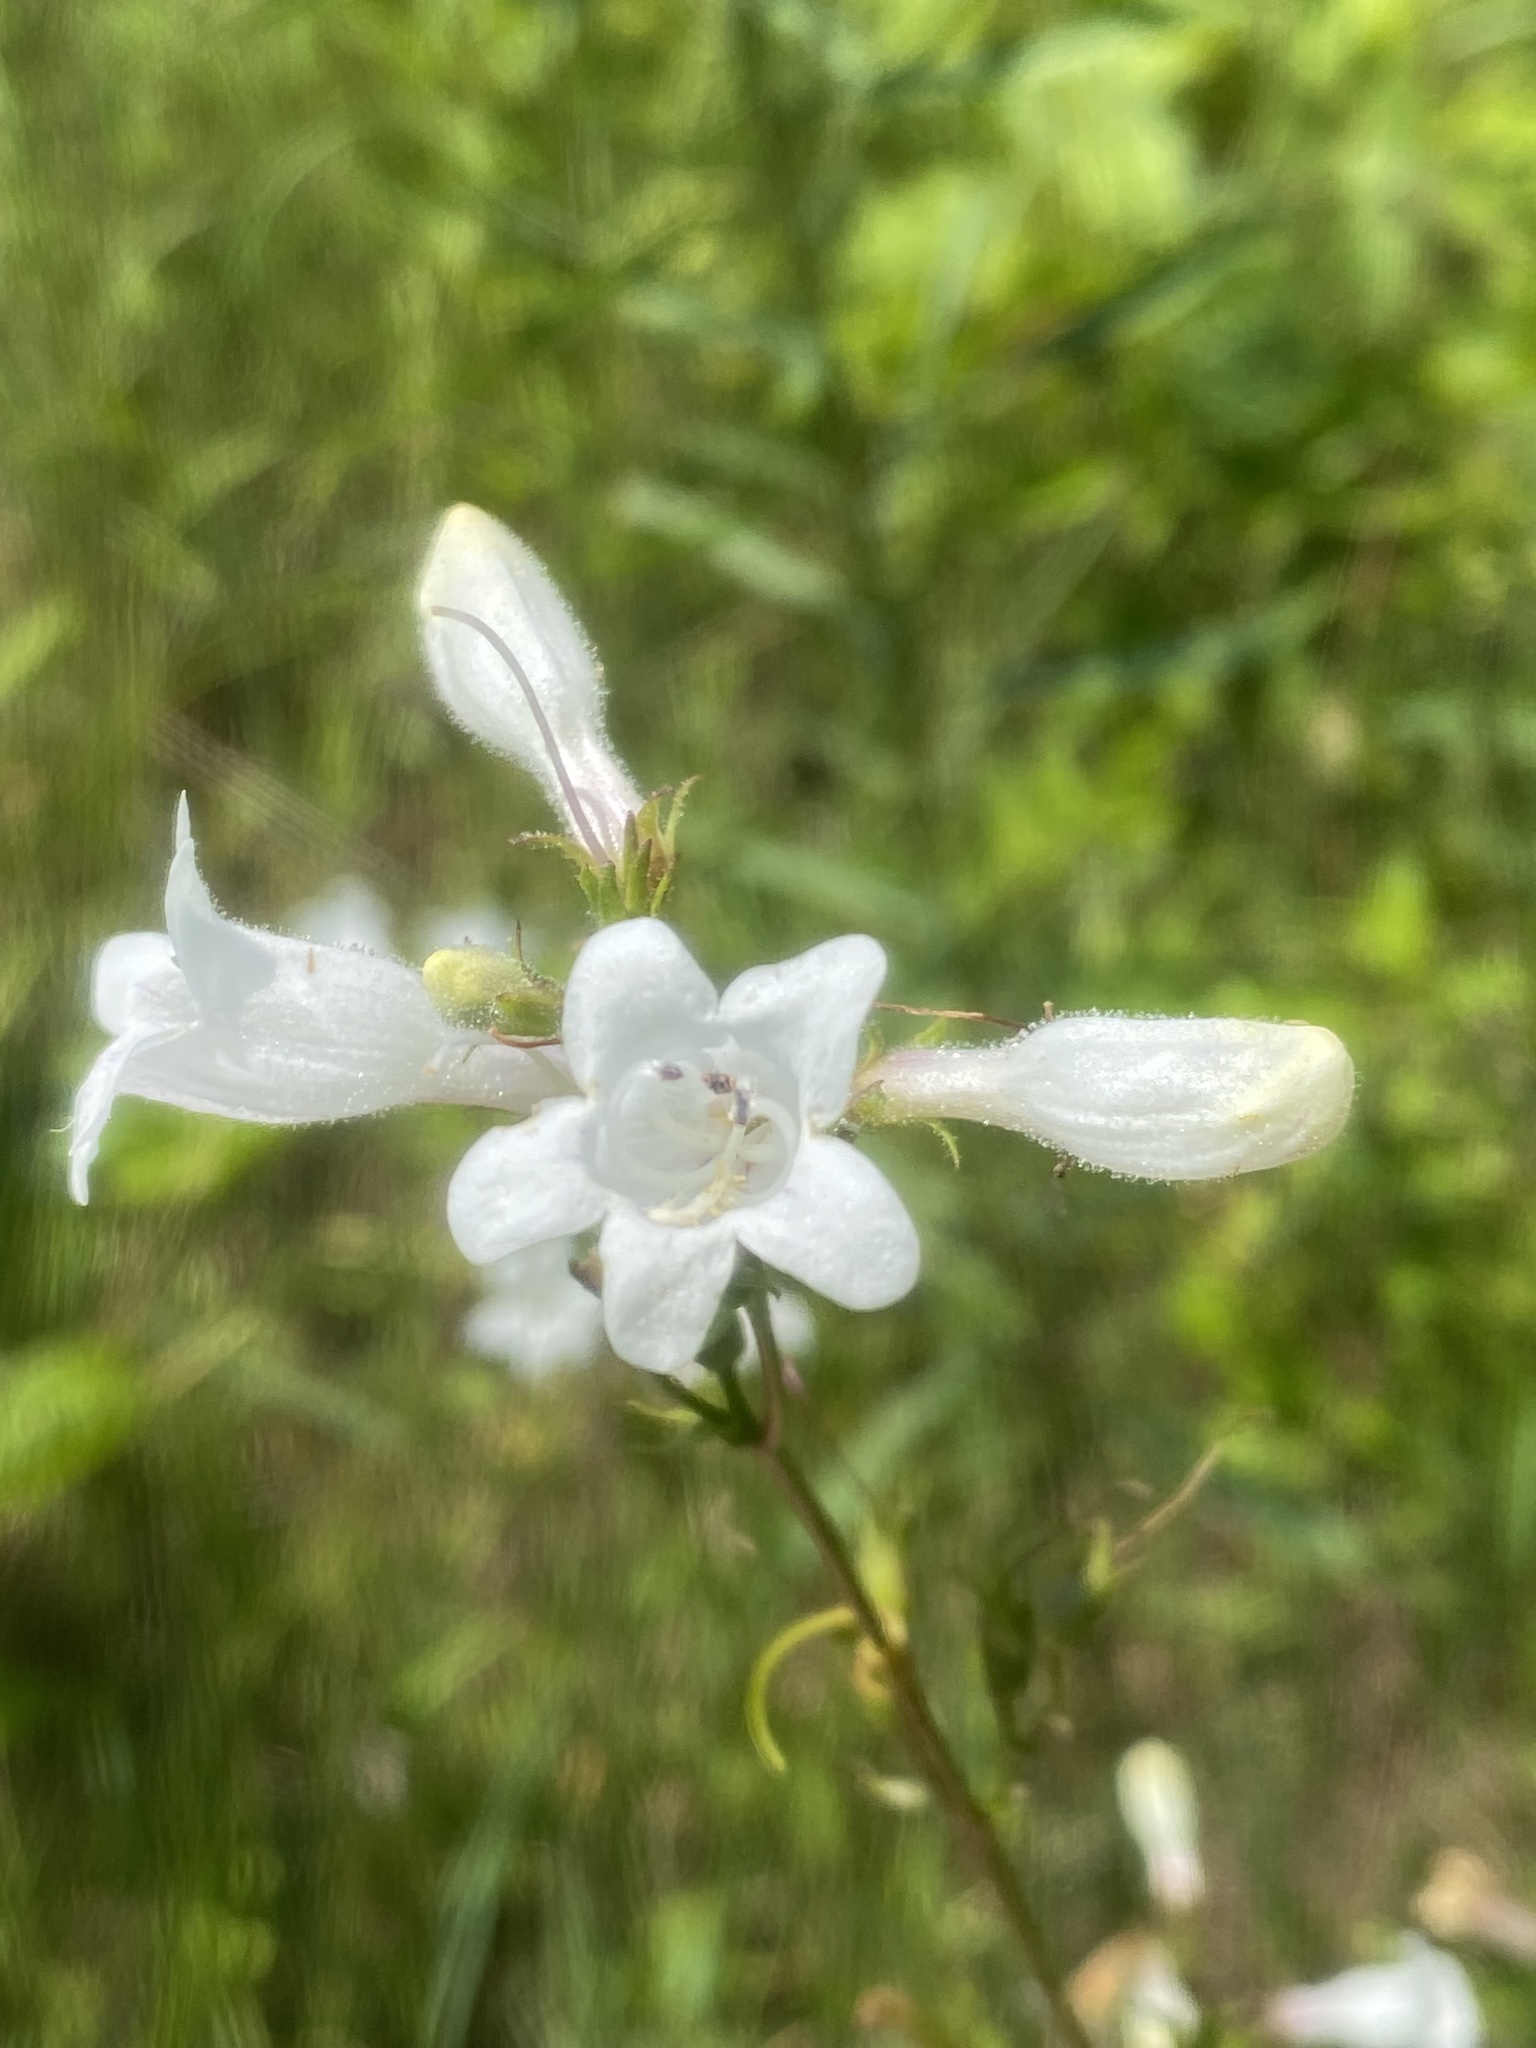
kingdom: Plantae
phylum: Tracheophyta
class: Magnoliopsida
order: Lamiales
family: Plantaginaceae
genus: Penstemon
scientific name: Penstemon digitalis
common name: Foxglove beardtongue
